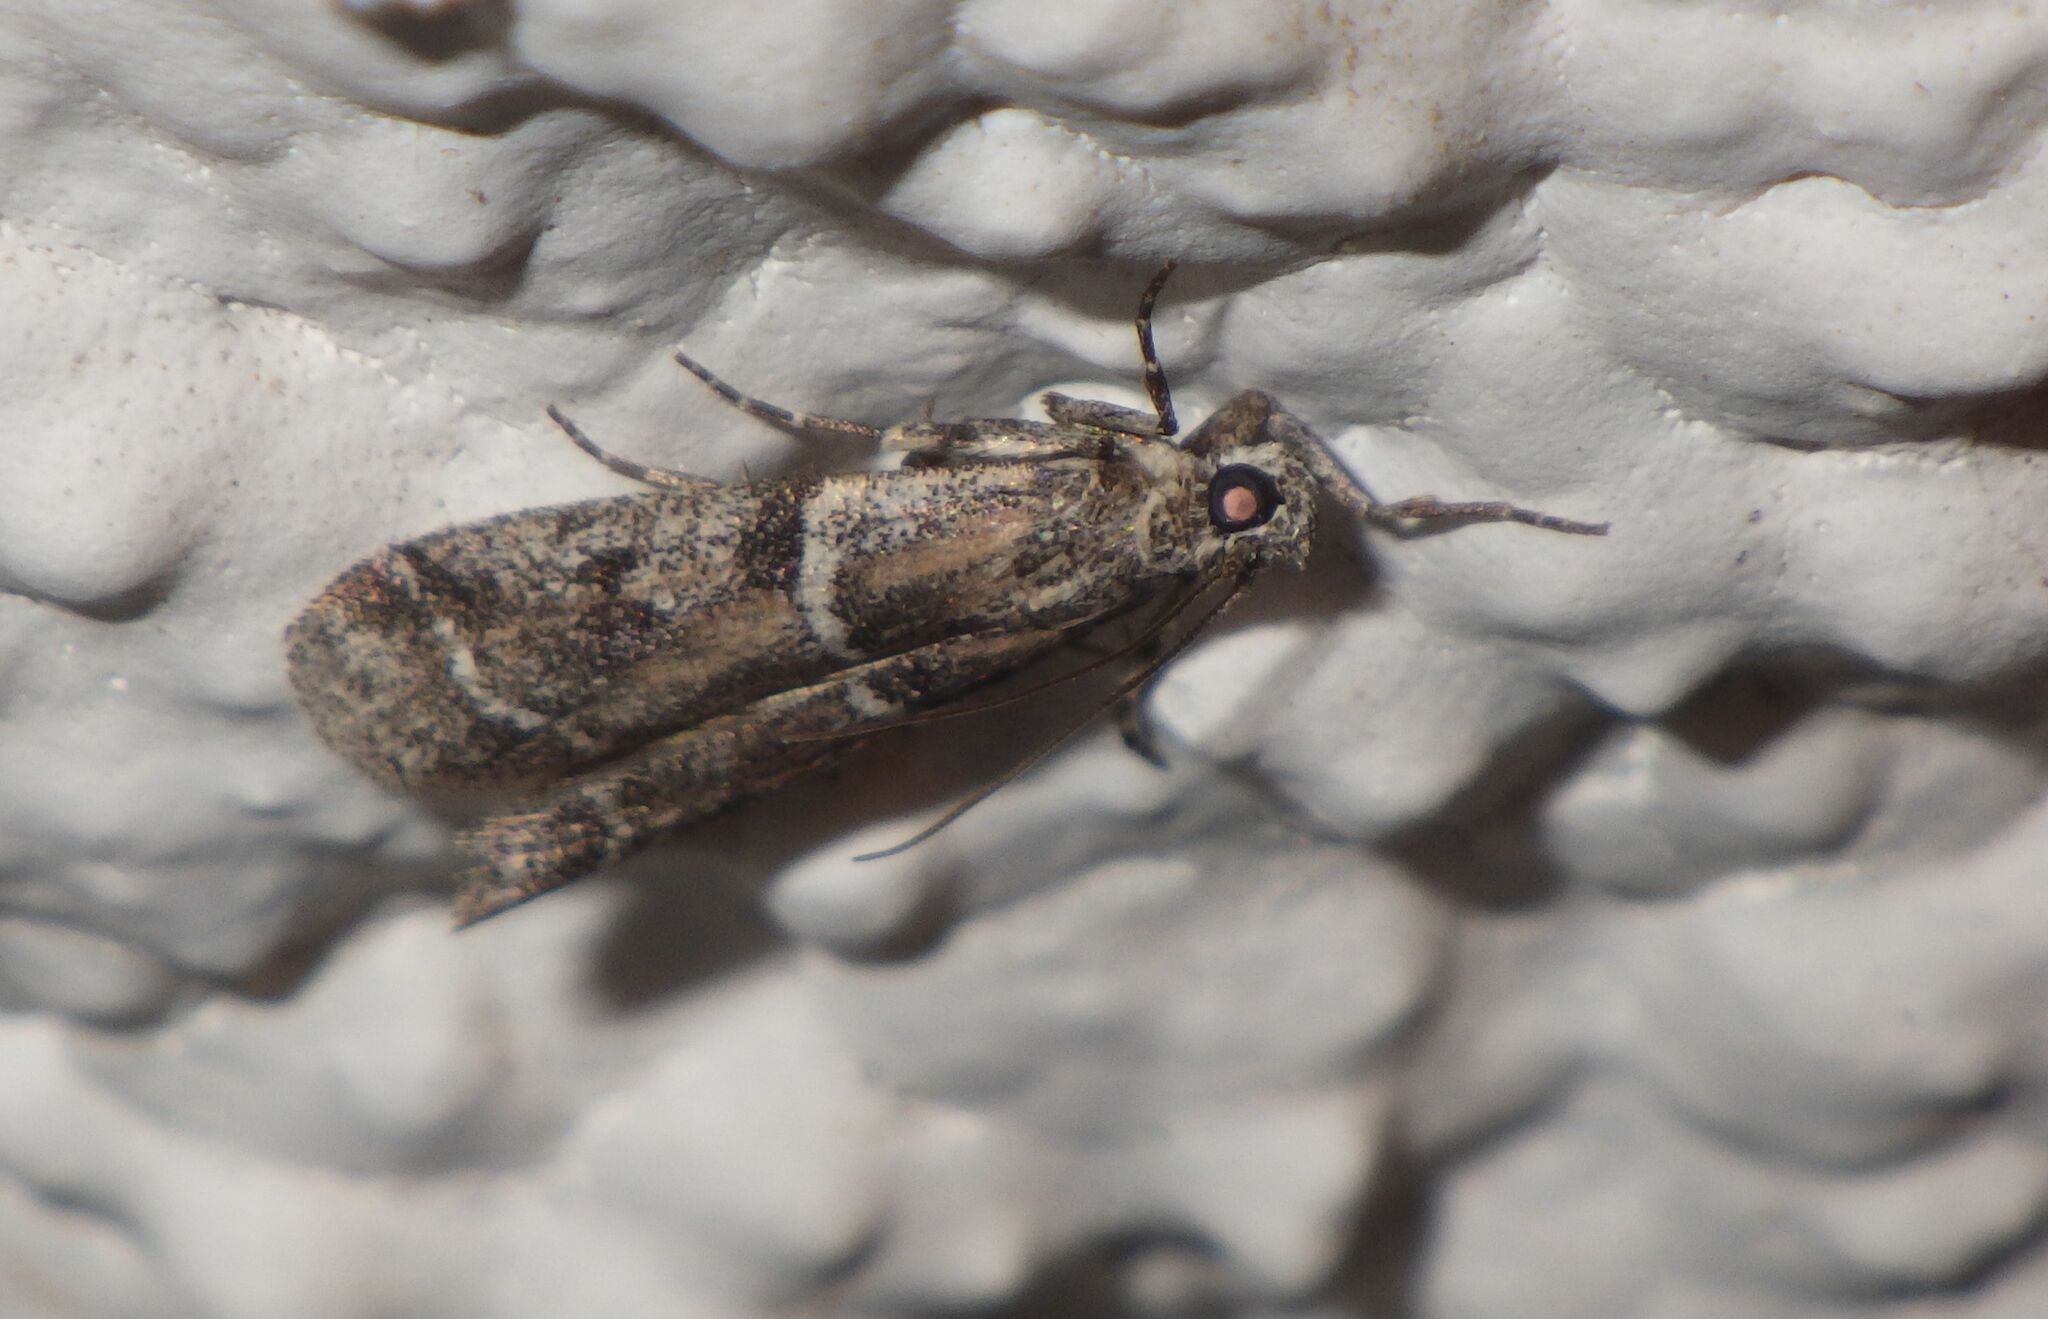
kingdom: Animalia
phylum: Arthropoda
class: Insecta
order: Lepidoptera
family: Pyralidae
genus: Keradere
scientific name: Keradere lepidella
